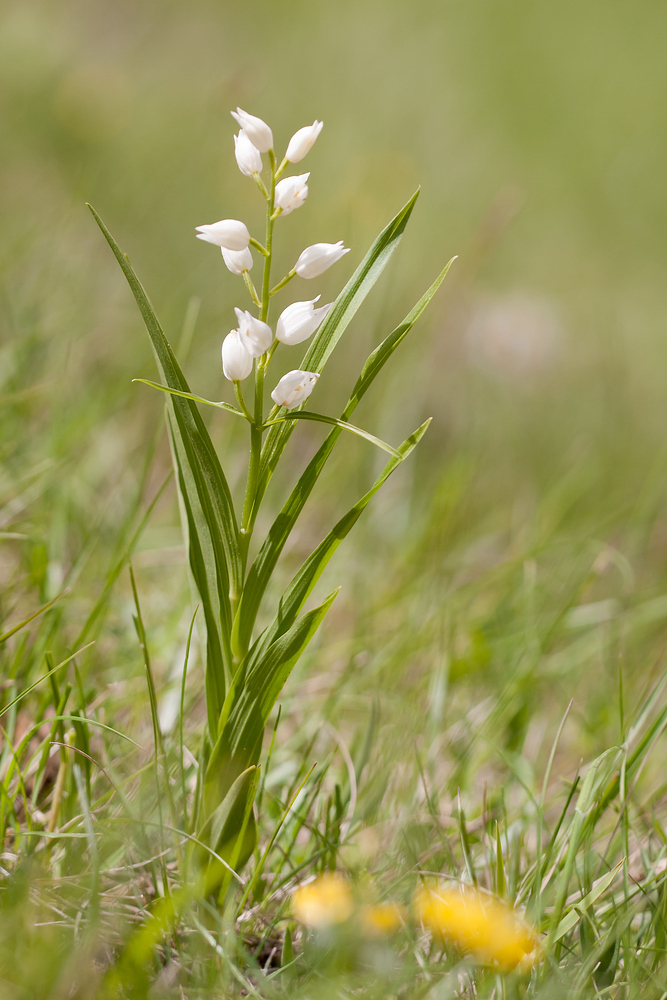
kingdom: Plantae
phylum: Tracheophyta
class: Liliopsida
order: Asparagales
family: Orchidaceae
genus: Cephalanthera
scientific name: Cephalanthera longifolia
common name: Narrow-leaved helleborine
